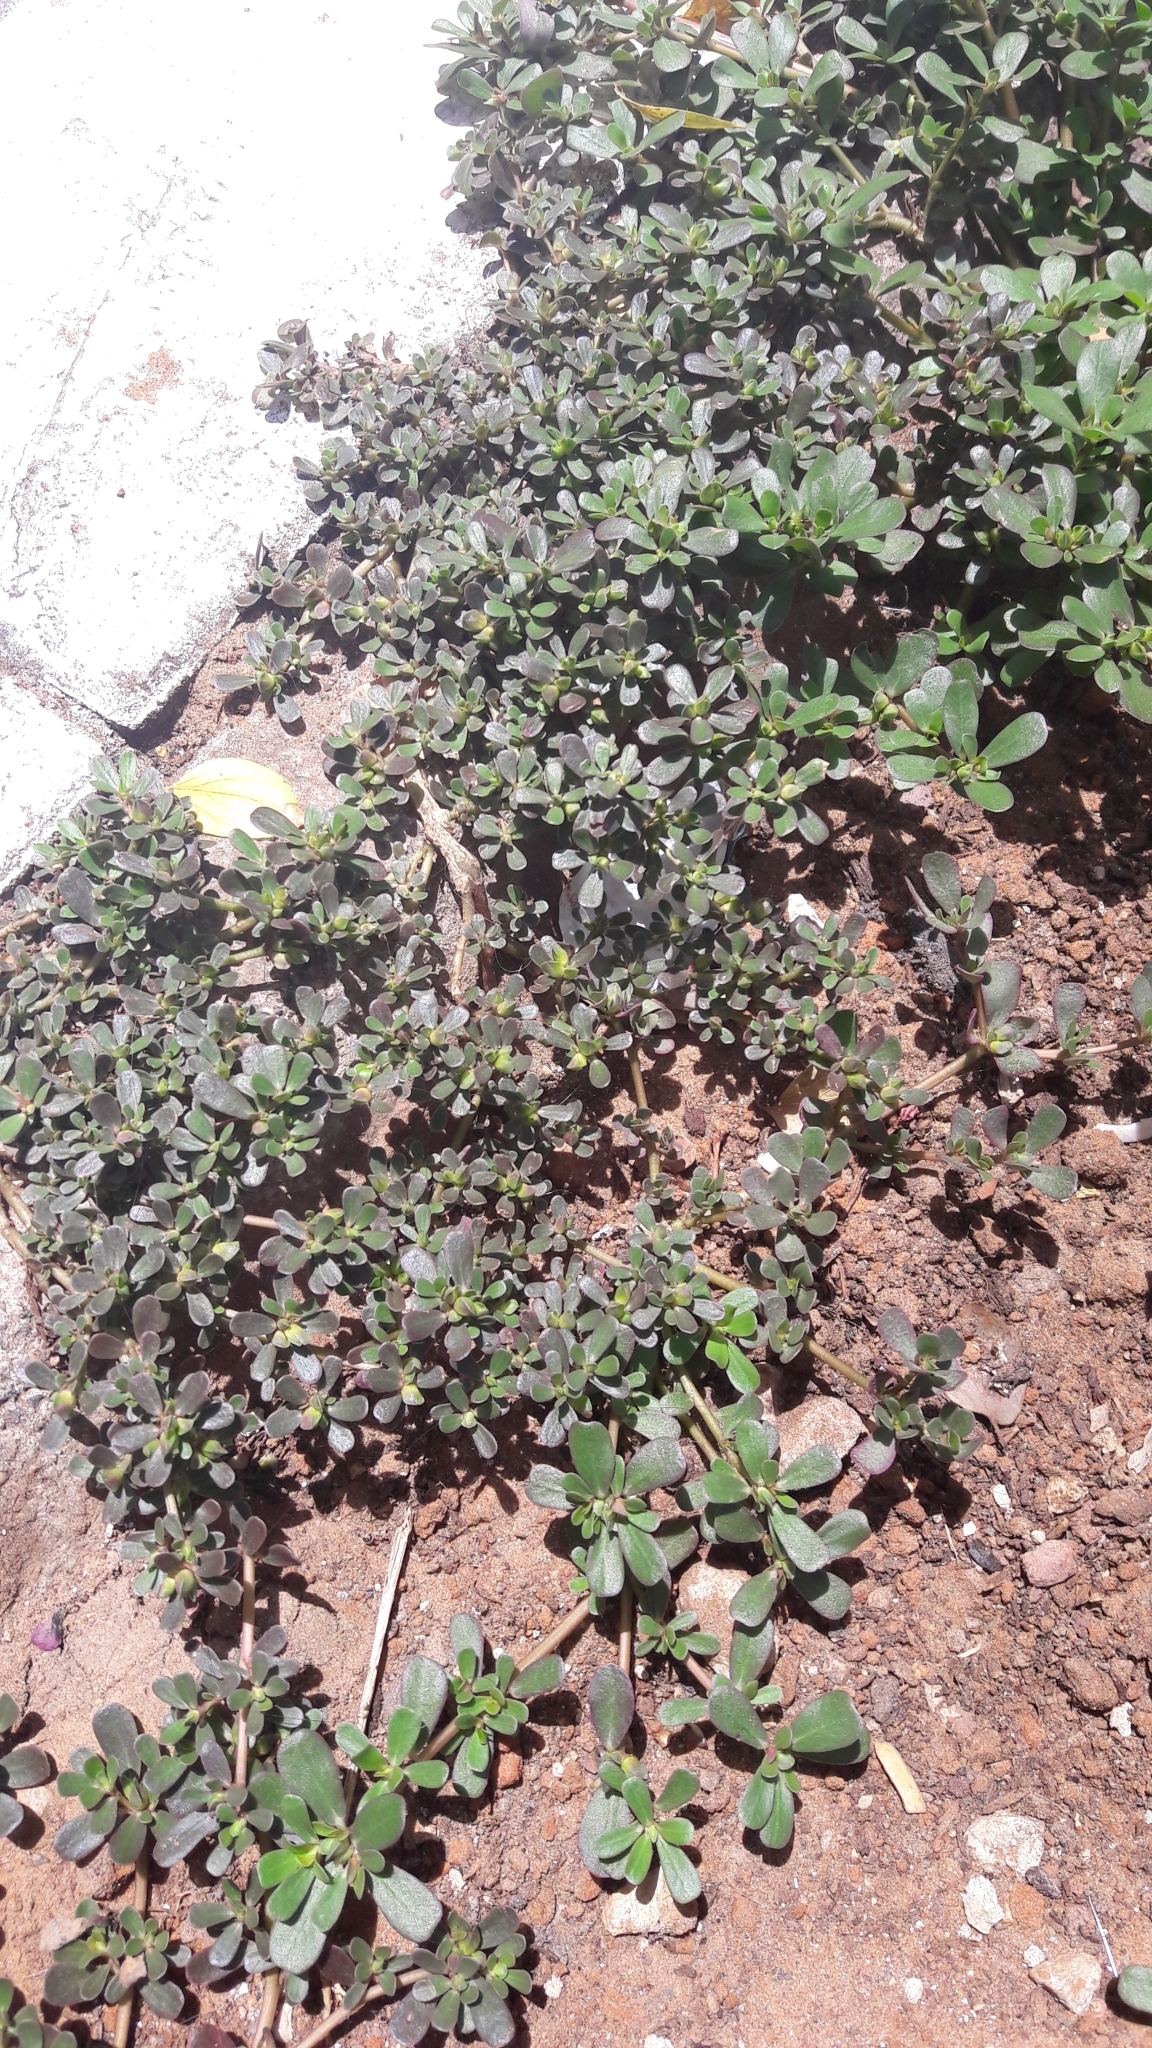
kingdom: Plantae
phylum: Tracheophyta
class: Magnoliopsida
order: Caryophyllales
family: Portulacaceae
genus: Portulaca
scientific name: Portulaca oleracea
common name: Common purslane
